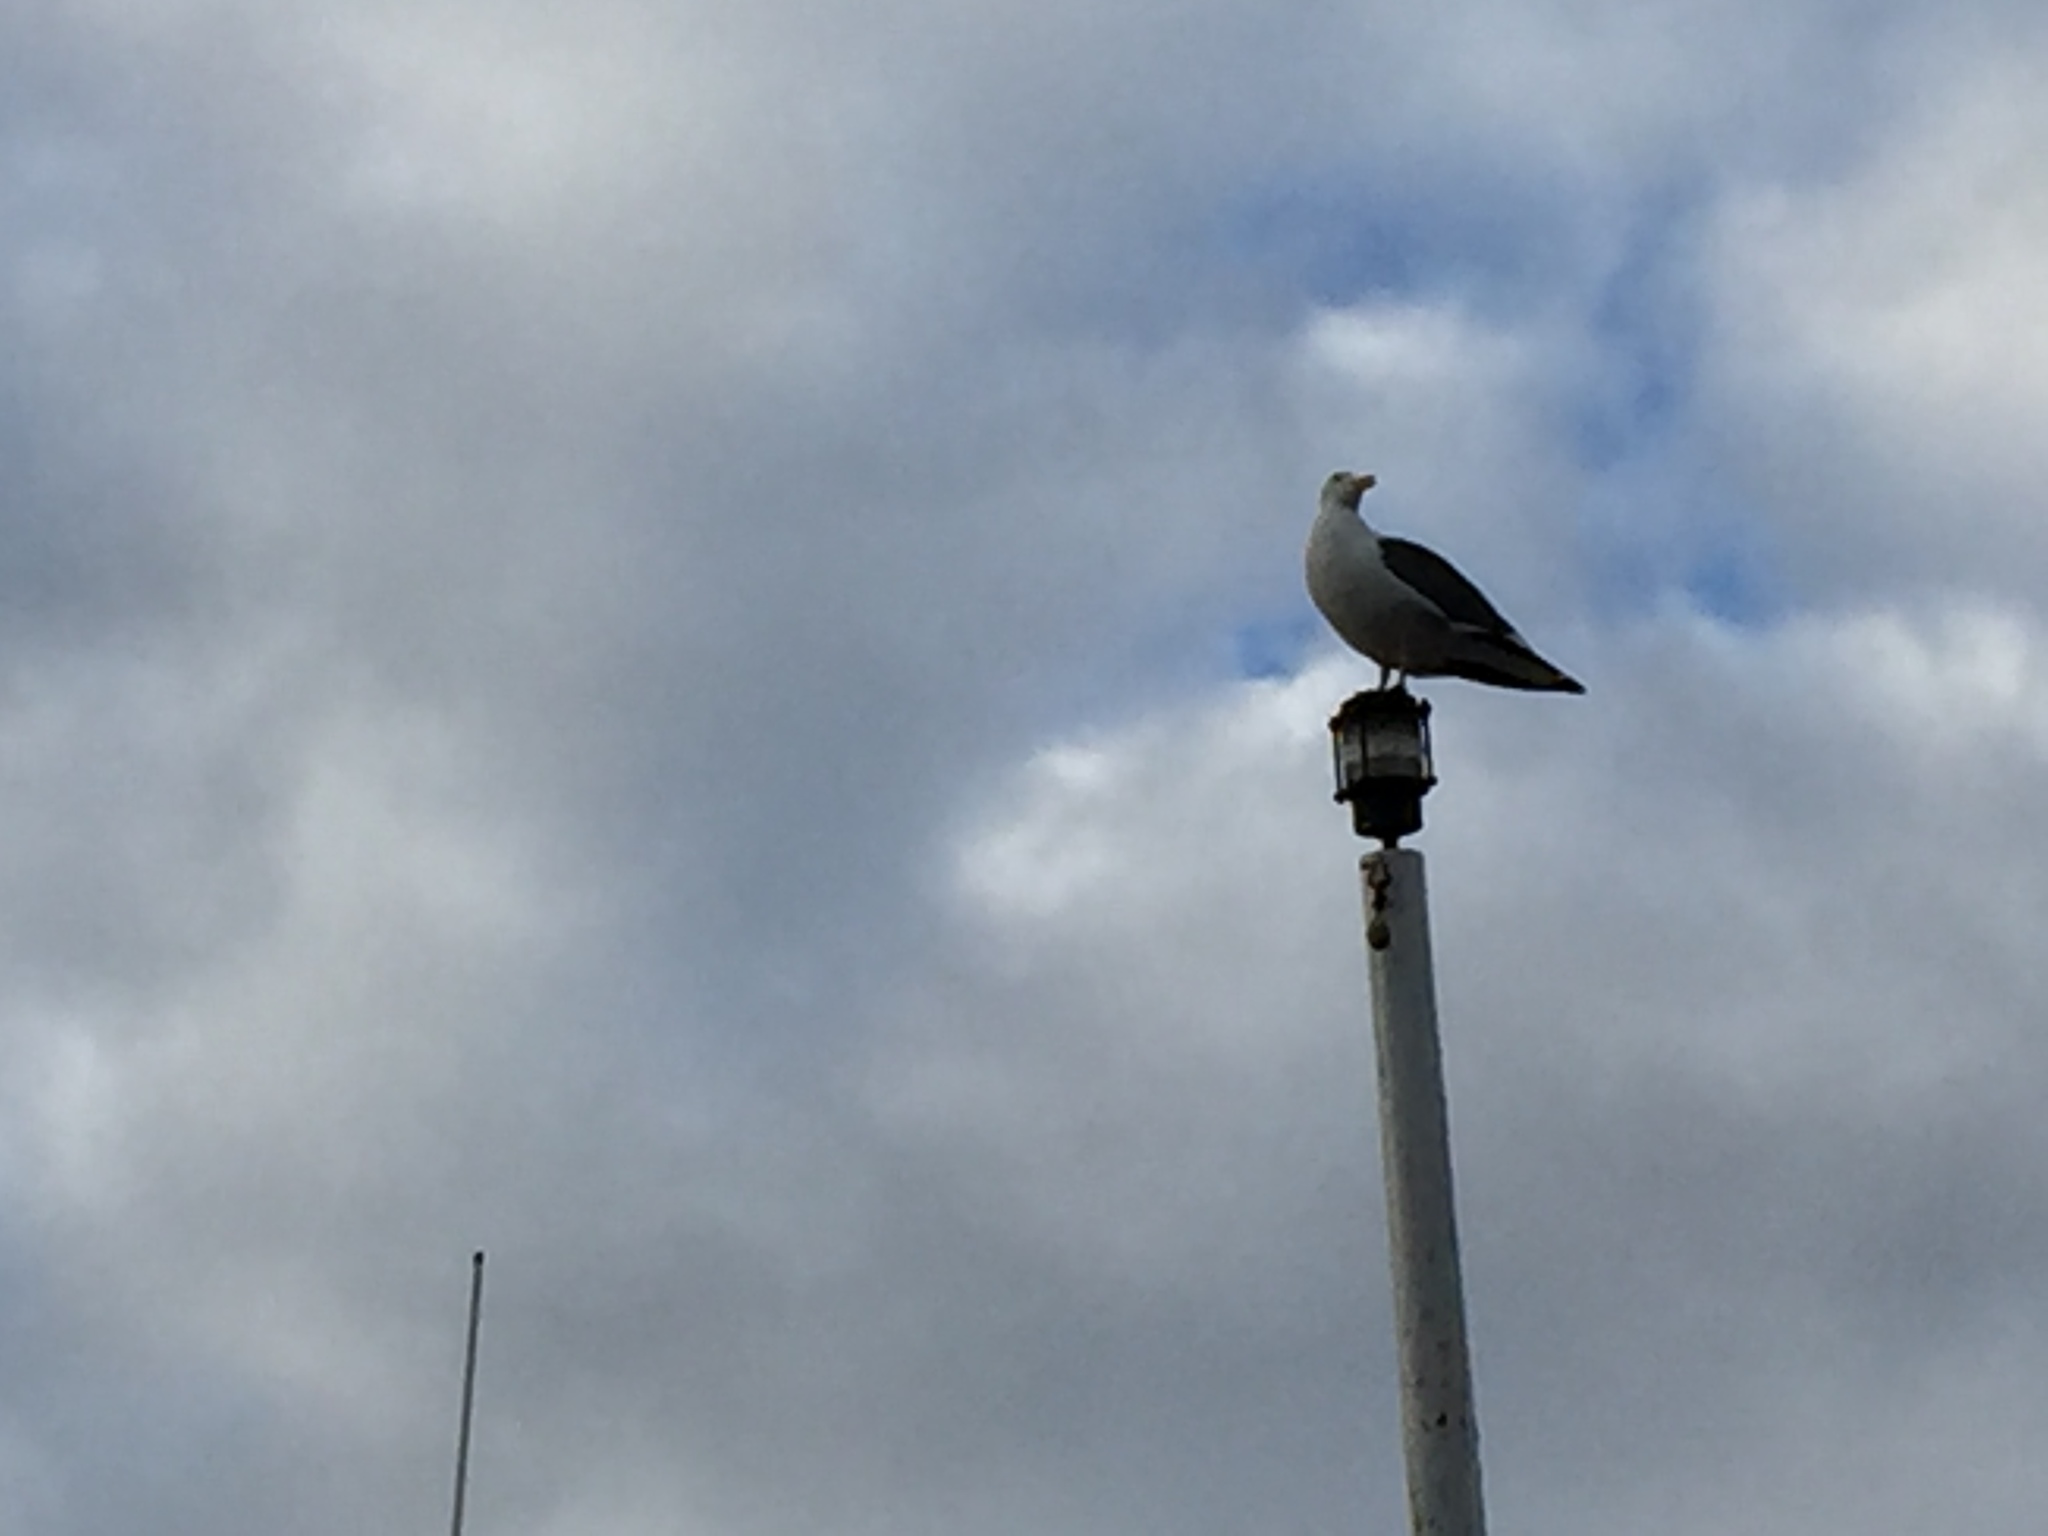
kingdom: Animalia
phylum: Chordata
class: Aves
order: Charadriiformes
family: Laridae
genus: Larus
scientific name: Larus occidentalis
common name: Western gull
